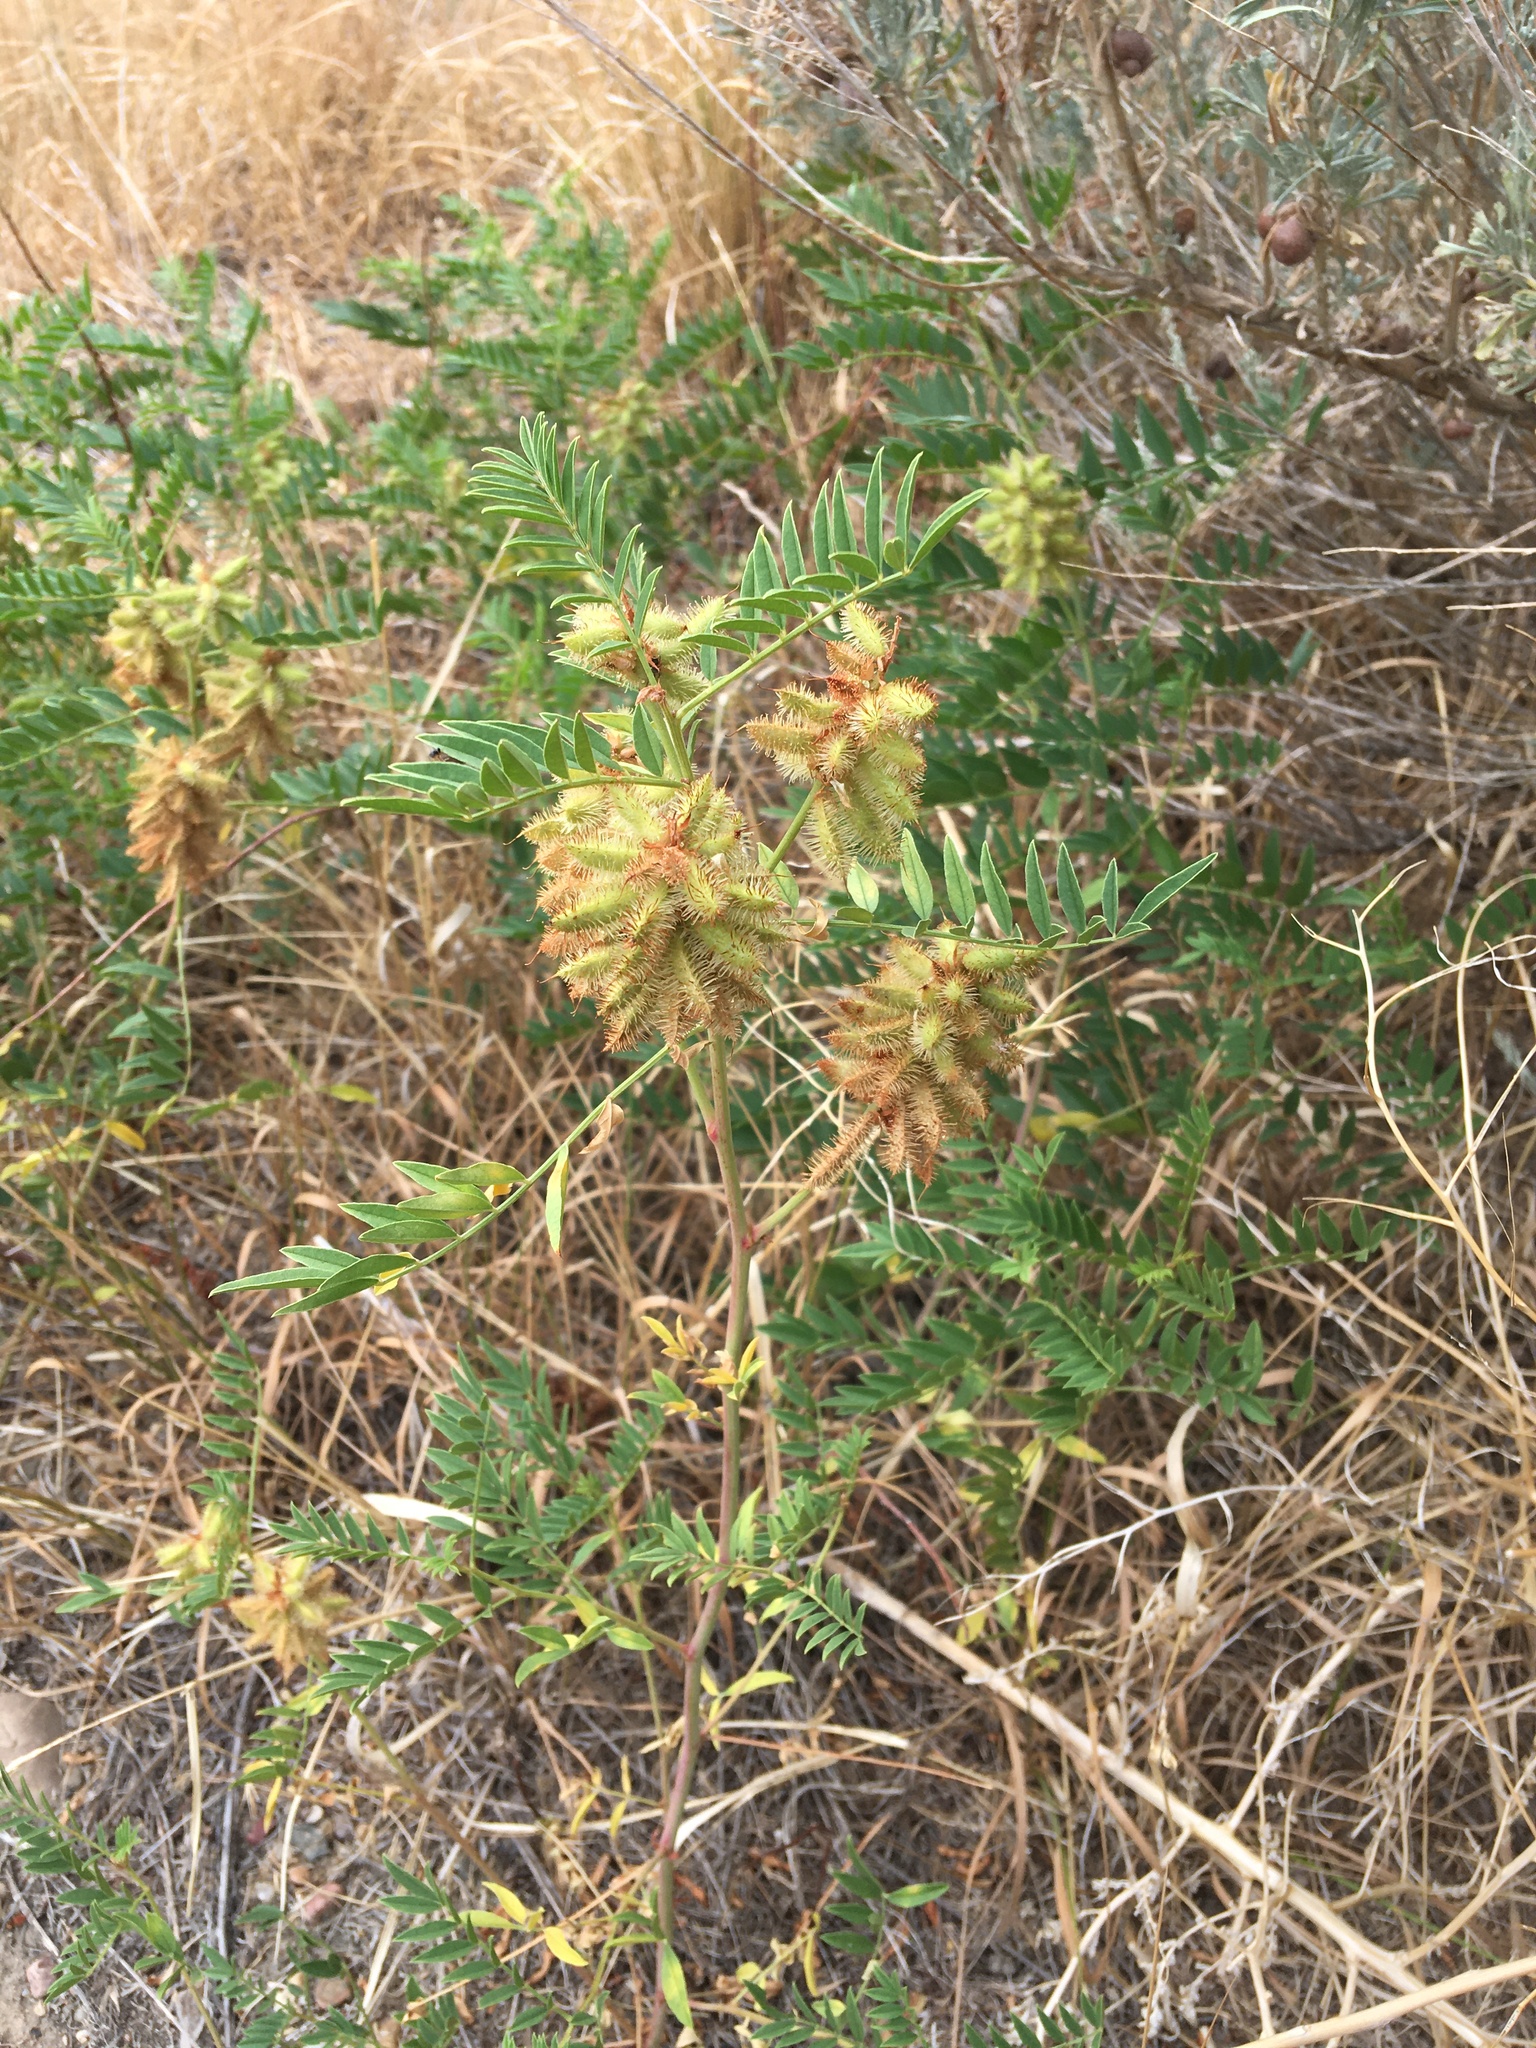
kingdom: Plantae
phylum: Tracheophyta
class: Magnoliopsida
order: Fabales
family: Fabaceae
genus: Glycyrrhiza
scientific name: Glycyrrhiza lepidota
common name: American liquorice
